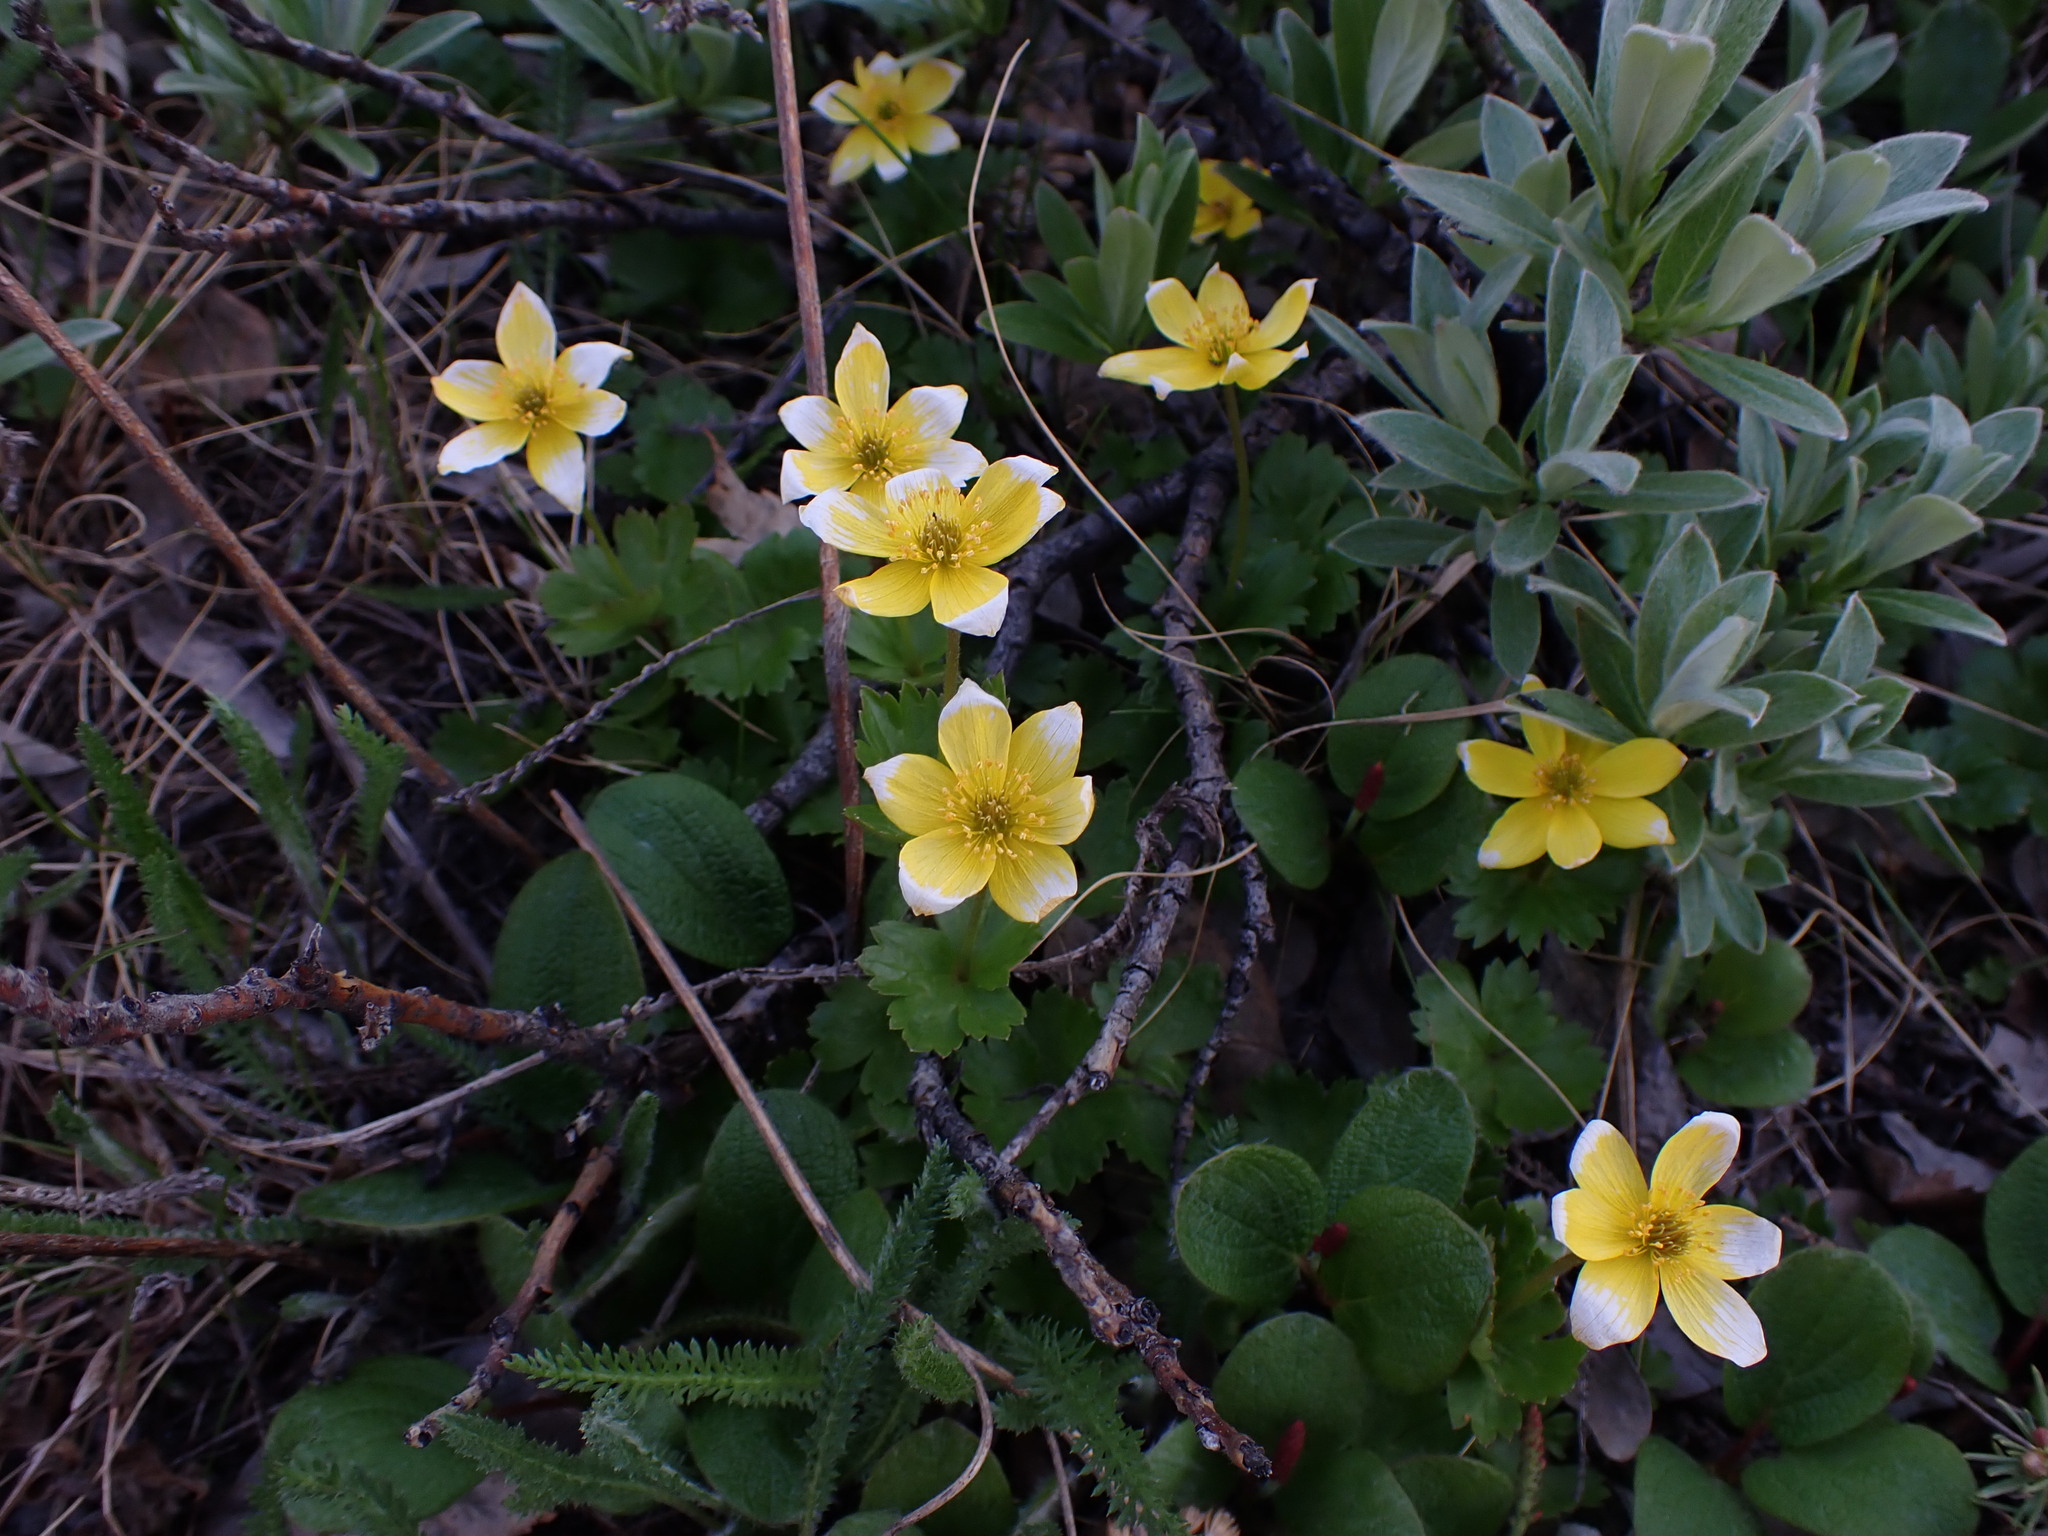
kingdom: Plantae
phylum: Tracheophyta
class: Magnoliopsida
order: Ranunculales
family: Ranunculaceae
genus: Anemonastrum
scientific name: Anemonastrum richardsonii
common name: Richardson's anemone
